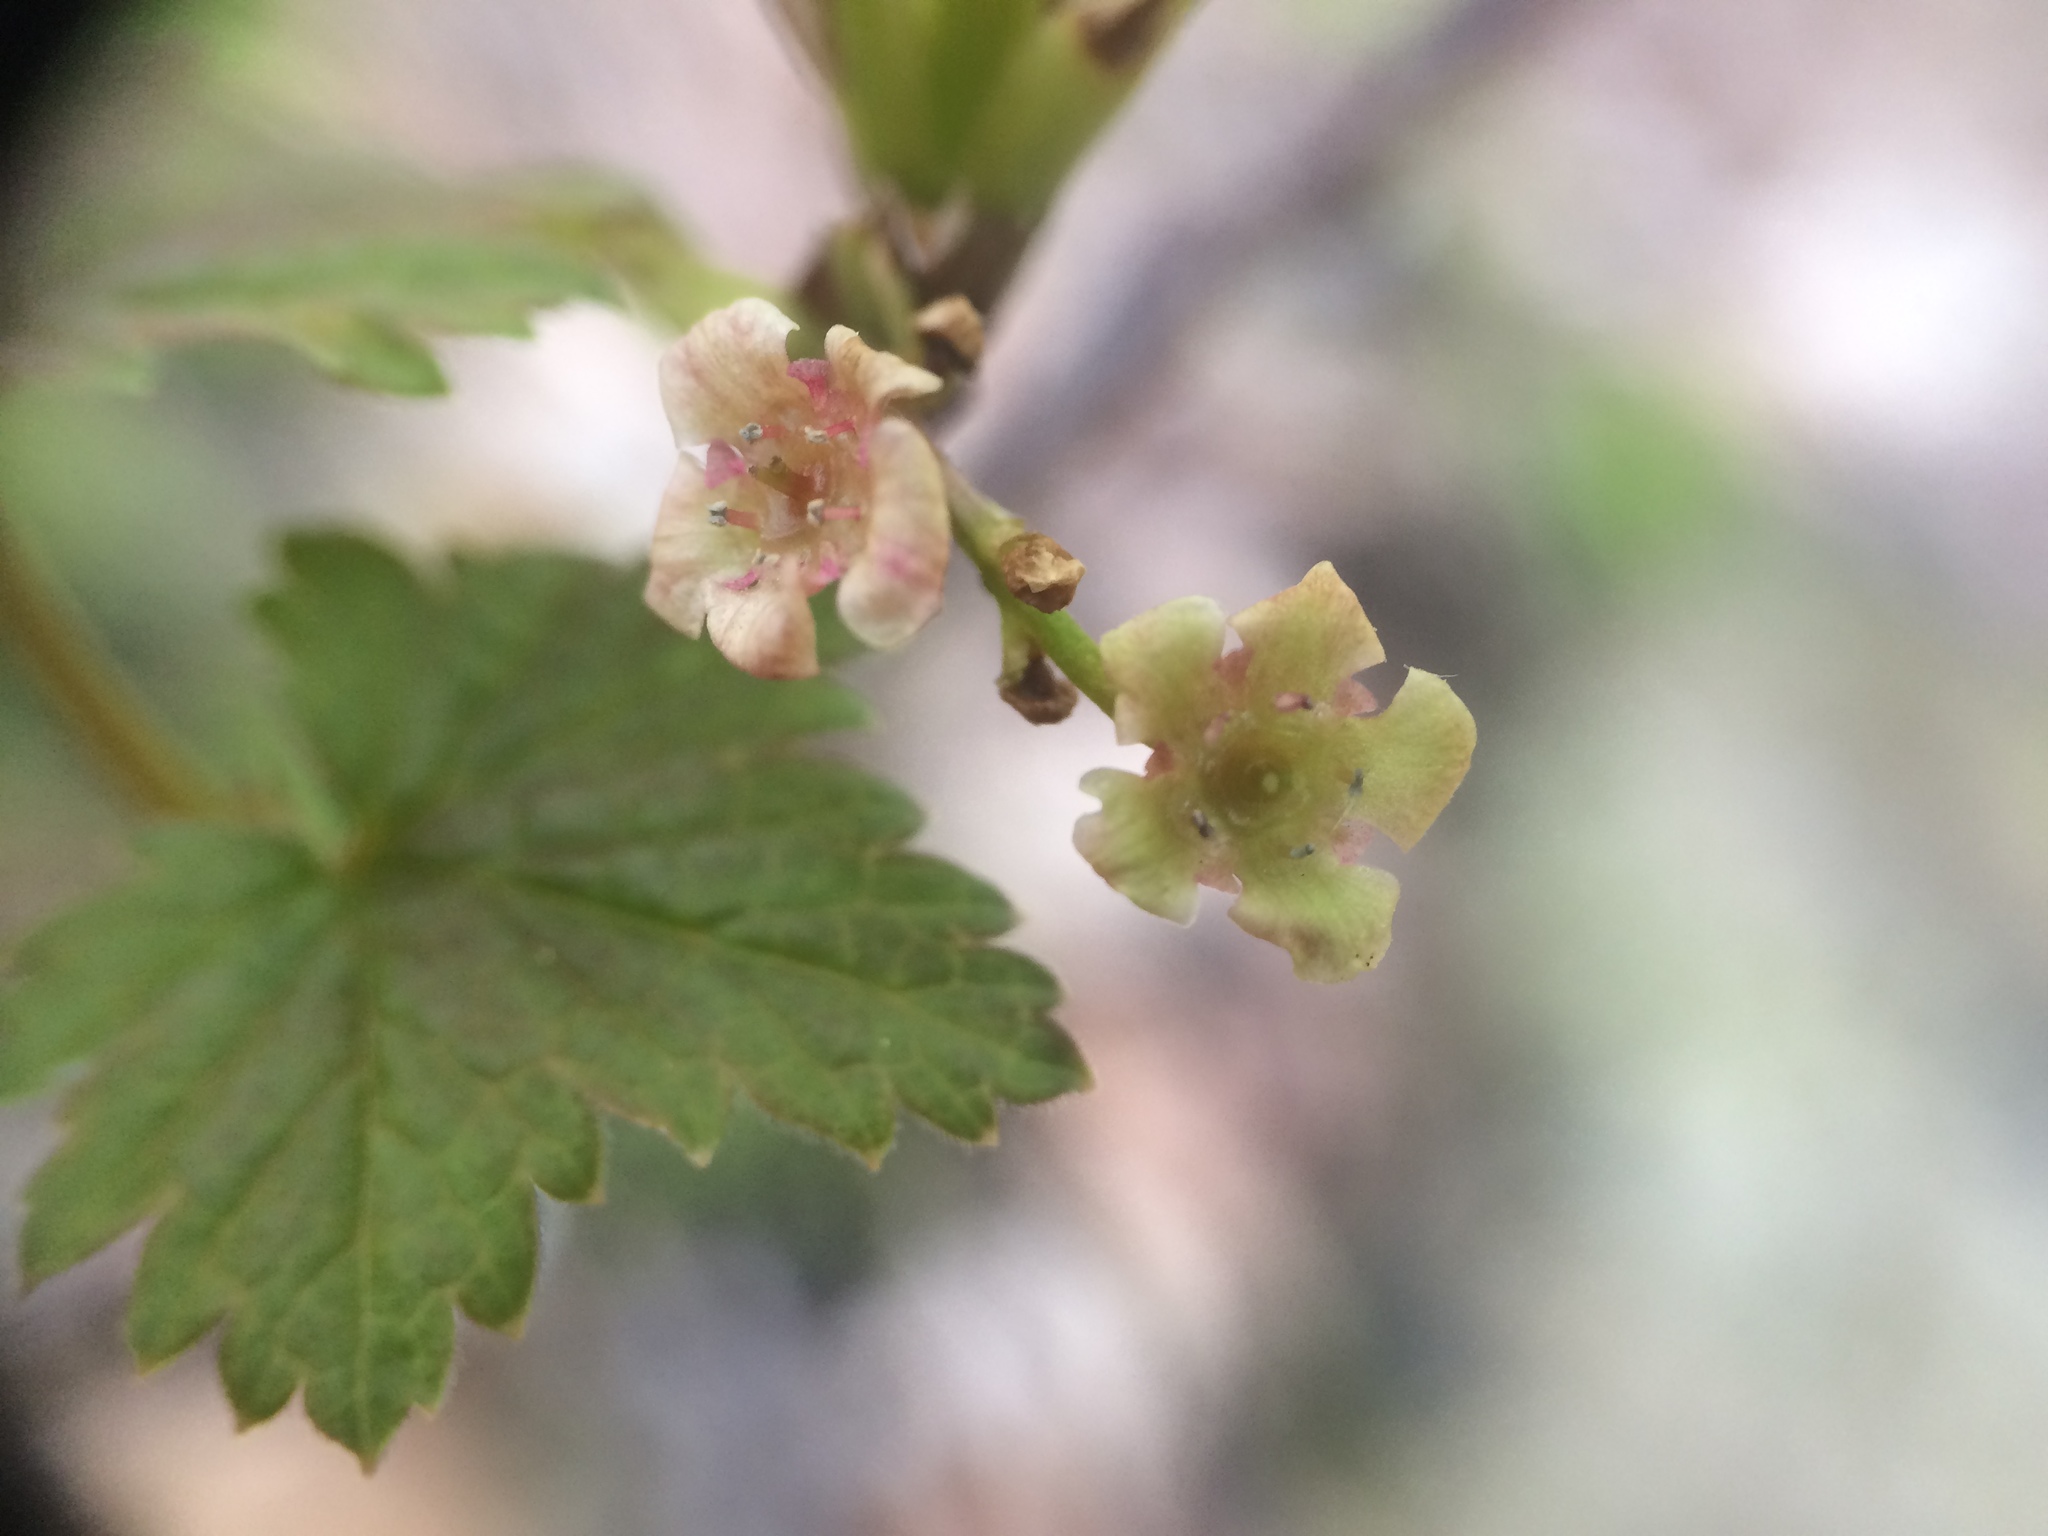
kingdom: Plantae
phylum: Tracheophyta
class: Magnoliopsida
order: Saxifragales
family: Grossulariaceae
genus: Ribes
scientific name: Ribes triste
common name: Swamp red currant
